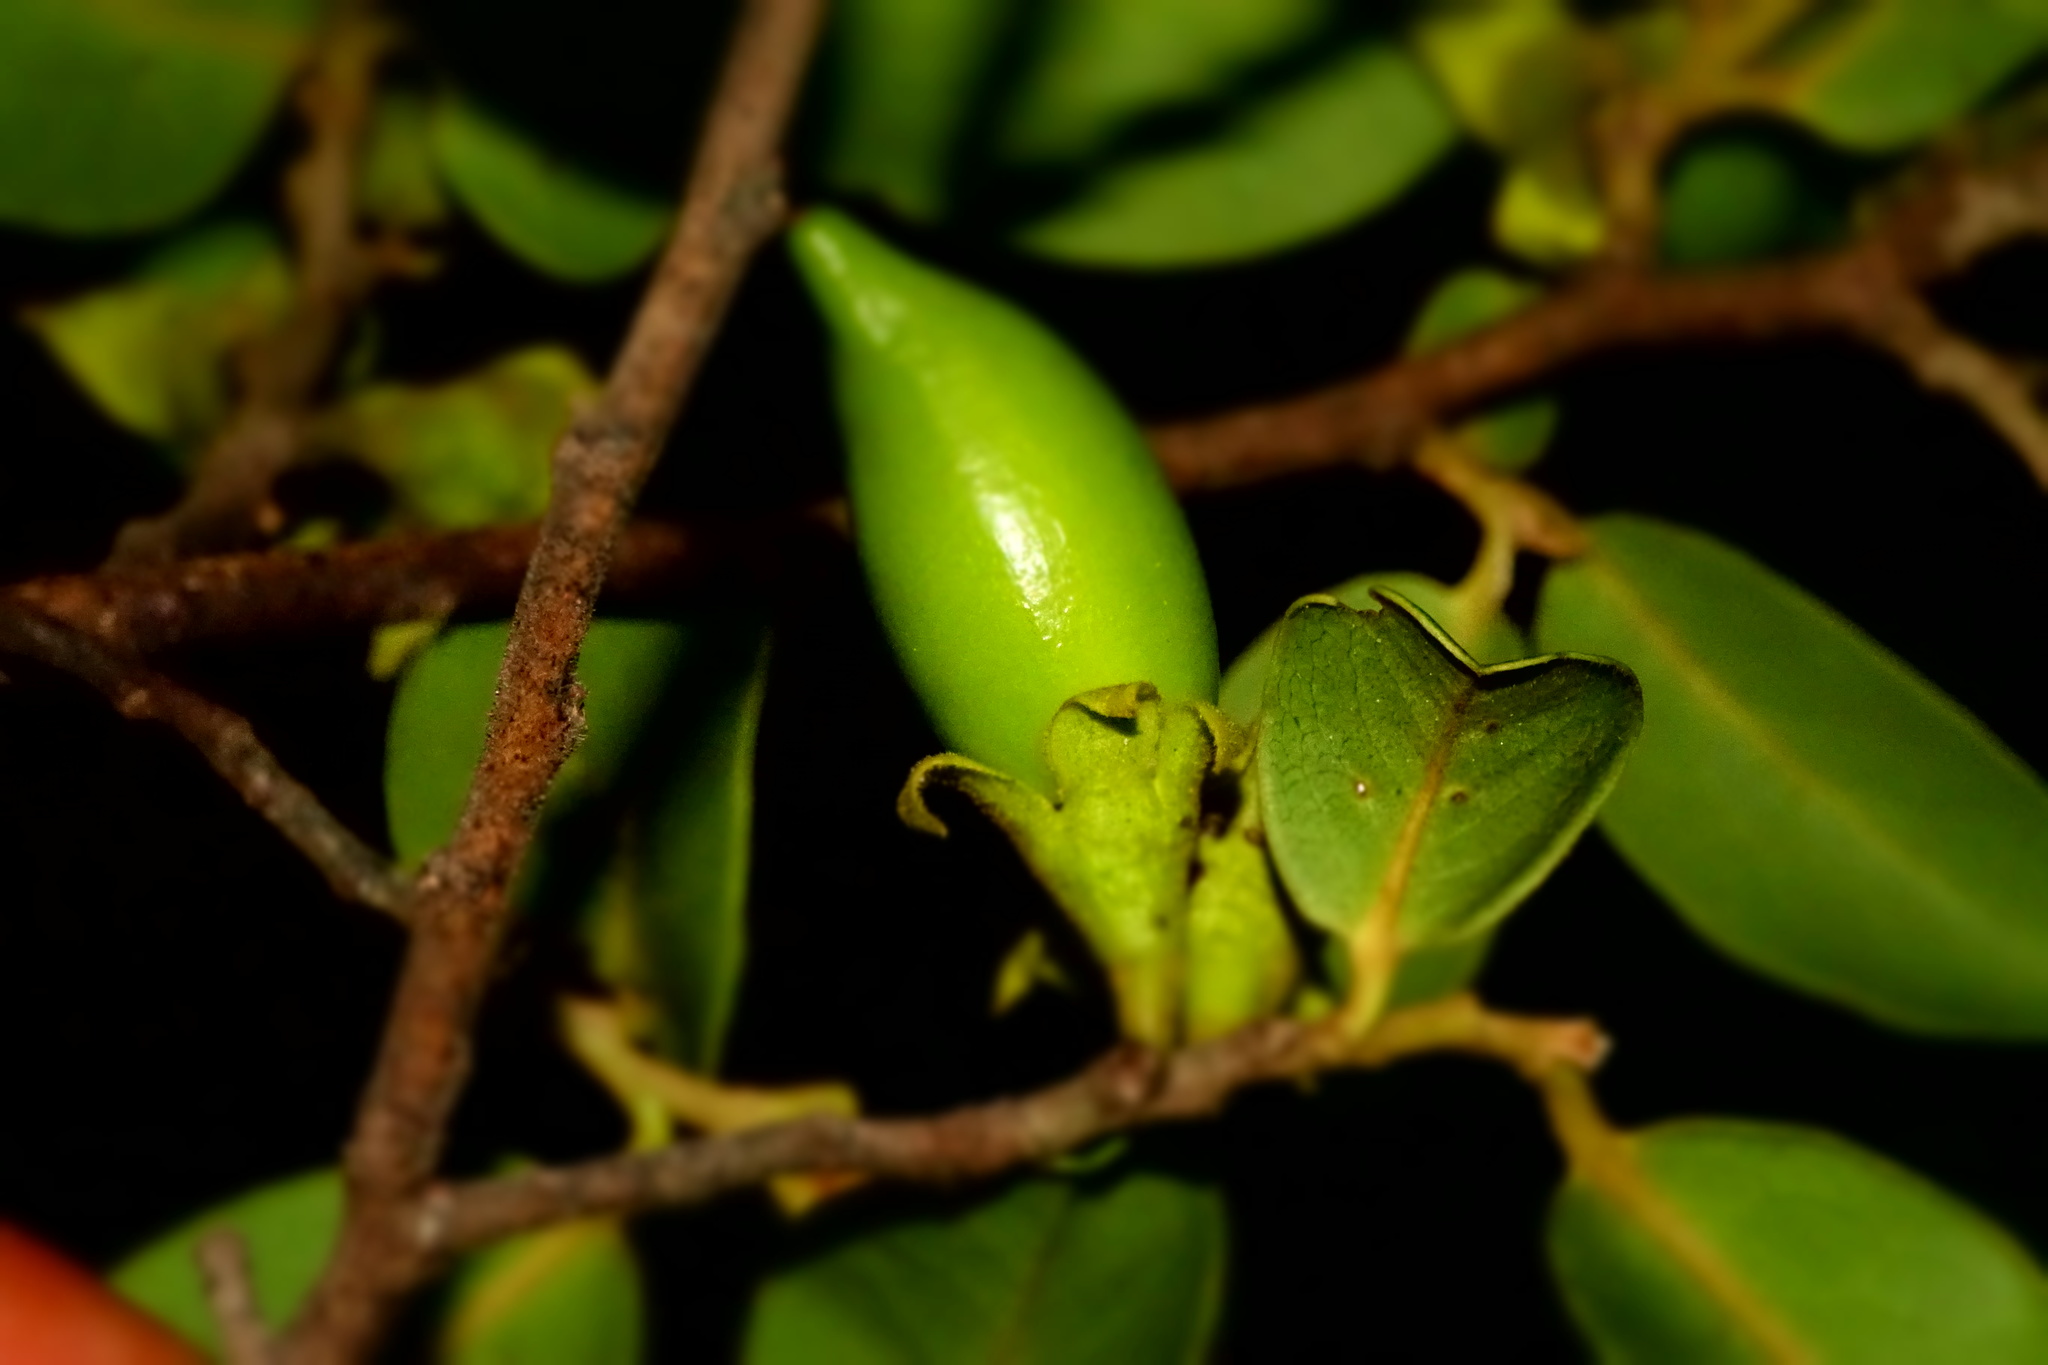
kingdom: Plantae
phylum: Tracheophyta
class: Magnoliopsida
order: Ericales
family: Ebenaceae
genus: Diospyros
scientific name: Diospyros tropophylla
